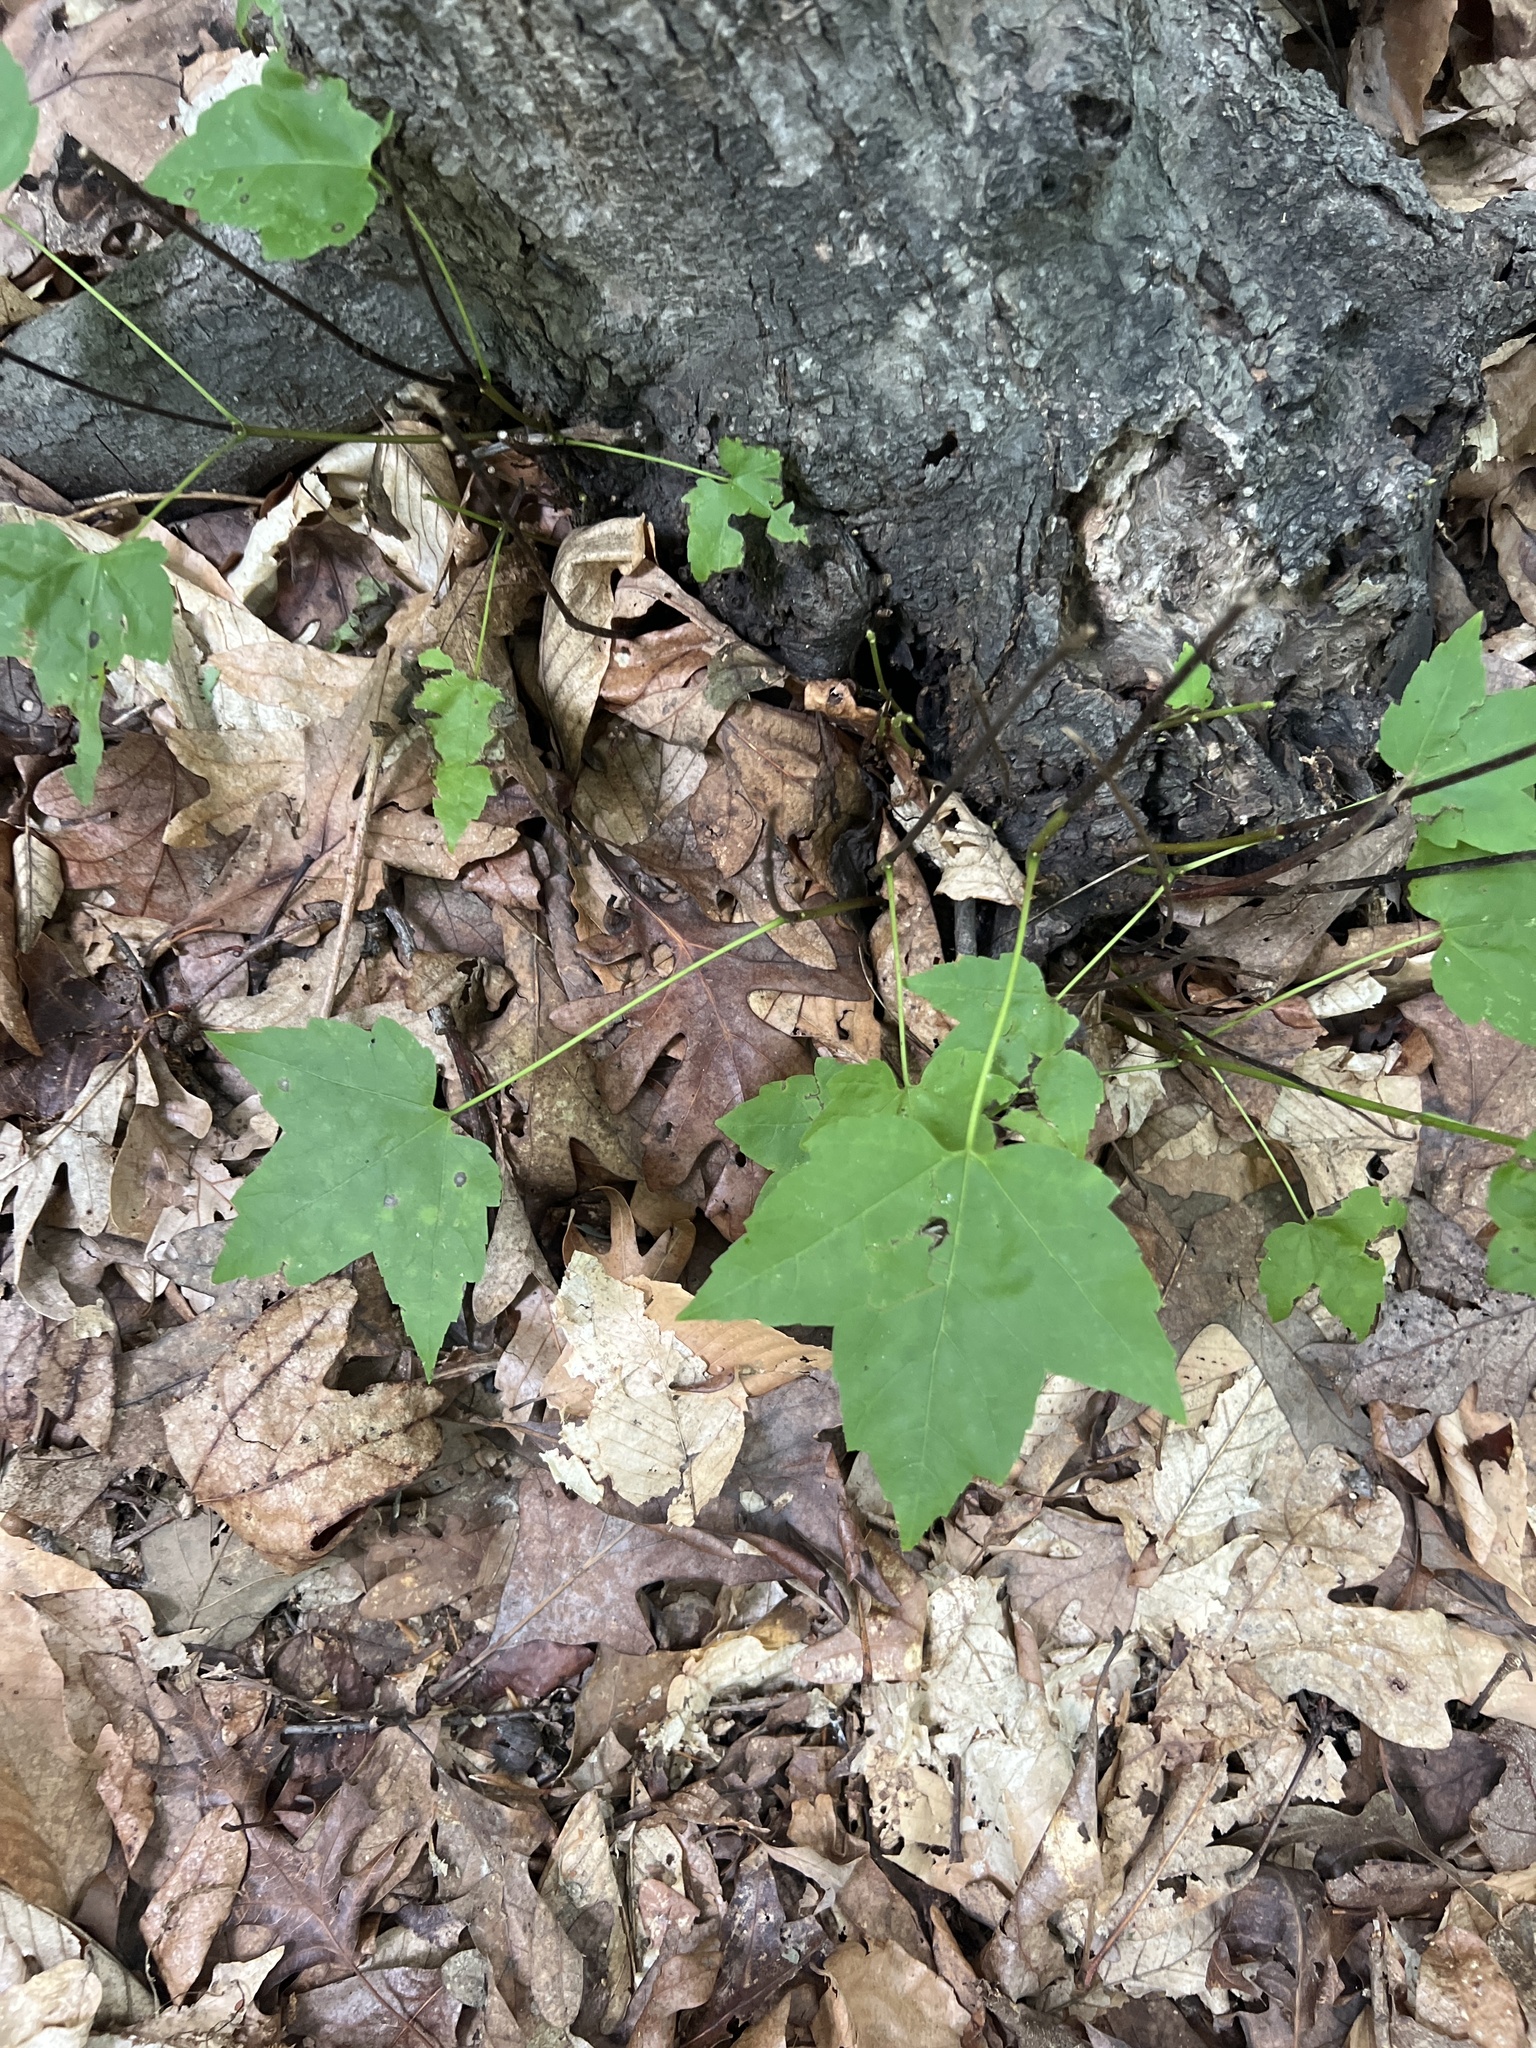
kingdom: Plantae
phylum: Tracheophyta
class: Magnoliopsida
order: Sapindales
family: Sapindaceae
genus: Acer
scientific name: Acer rubrum
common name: Red maple
